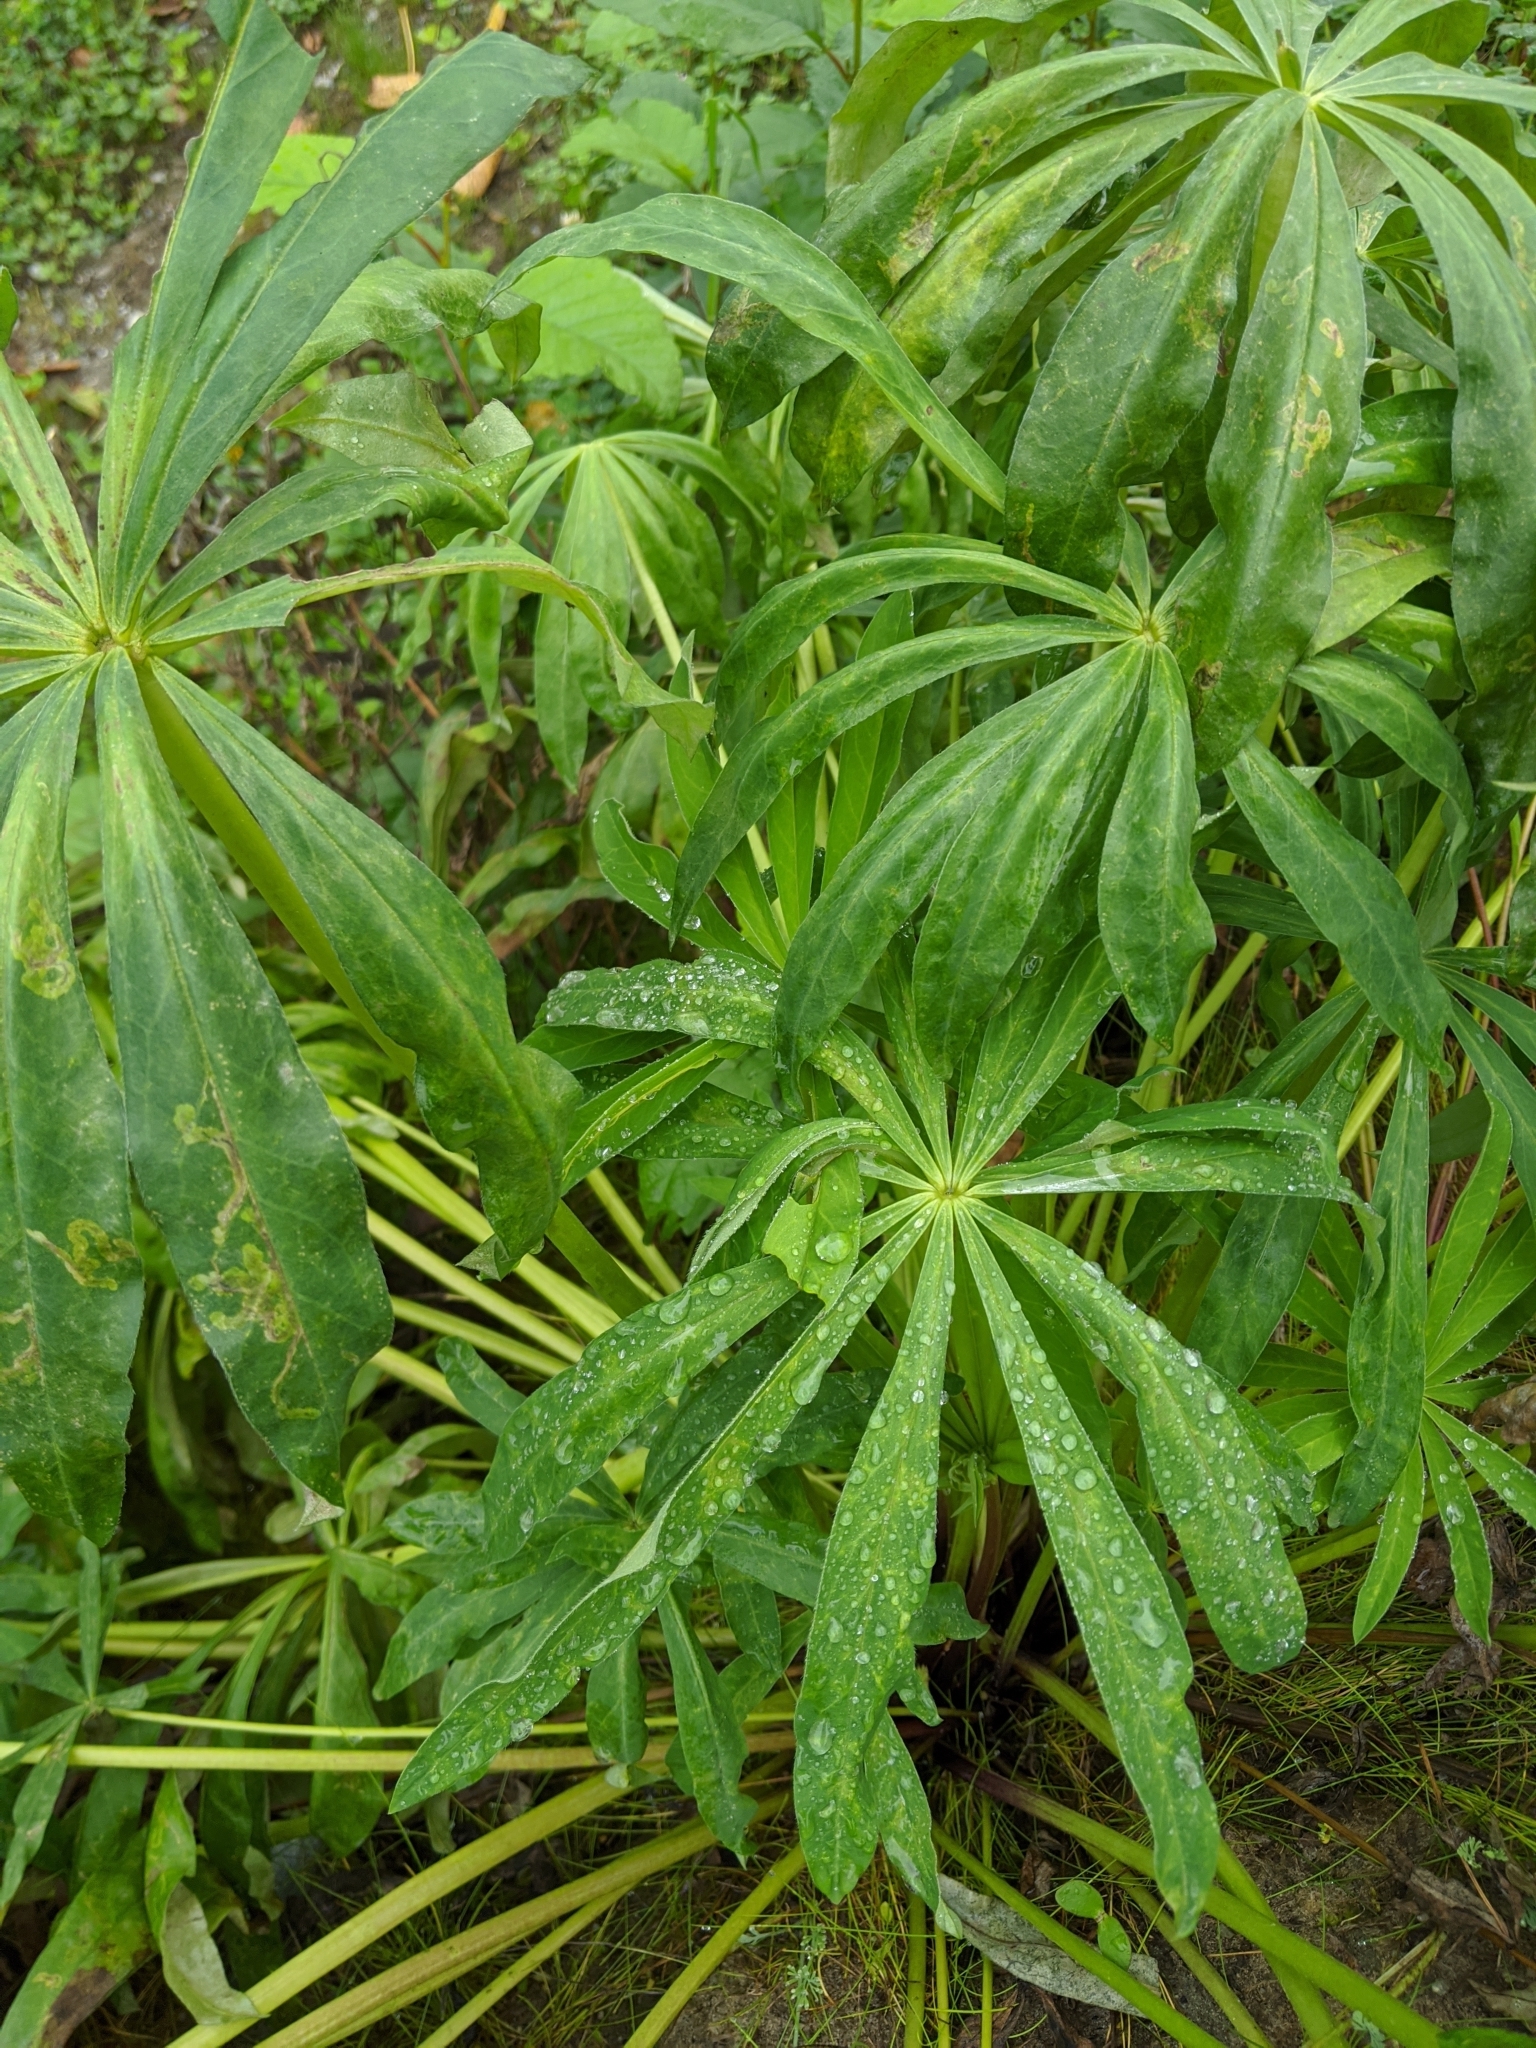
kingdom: Plantae
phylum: Tracheophyta
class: Magnoliopsida
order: Fabales
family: Fabaceae
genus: Lupinus
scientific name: Lupinus polyphyllus
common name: Garden lupin
